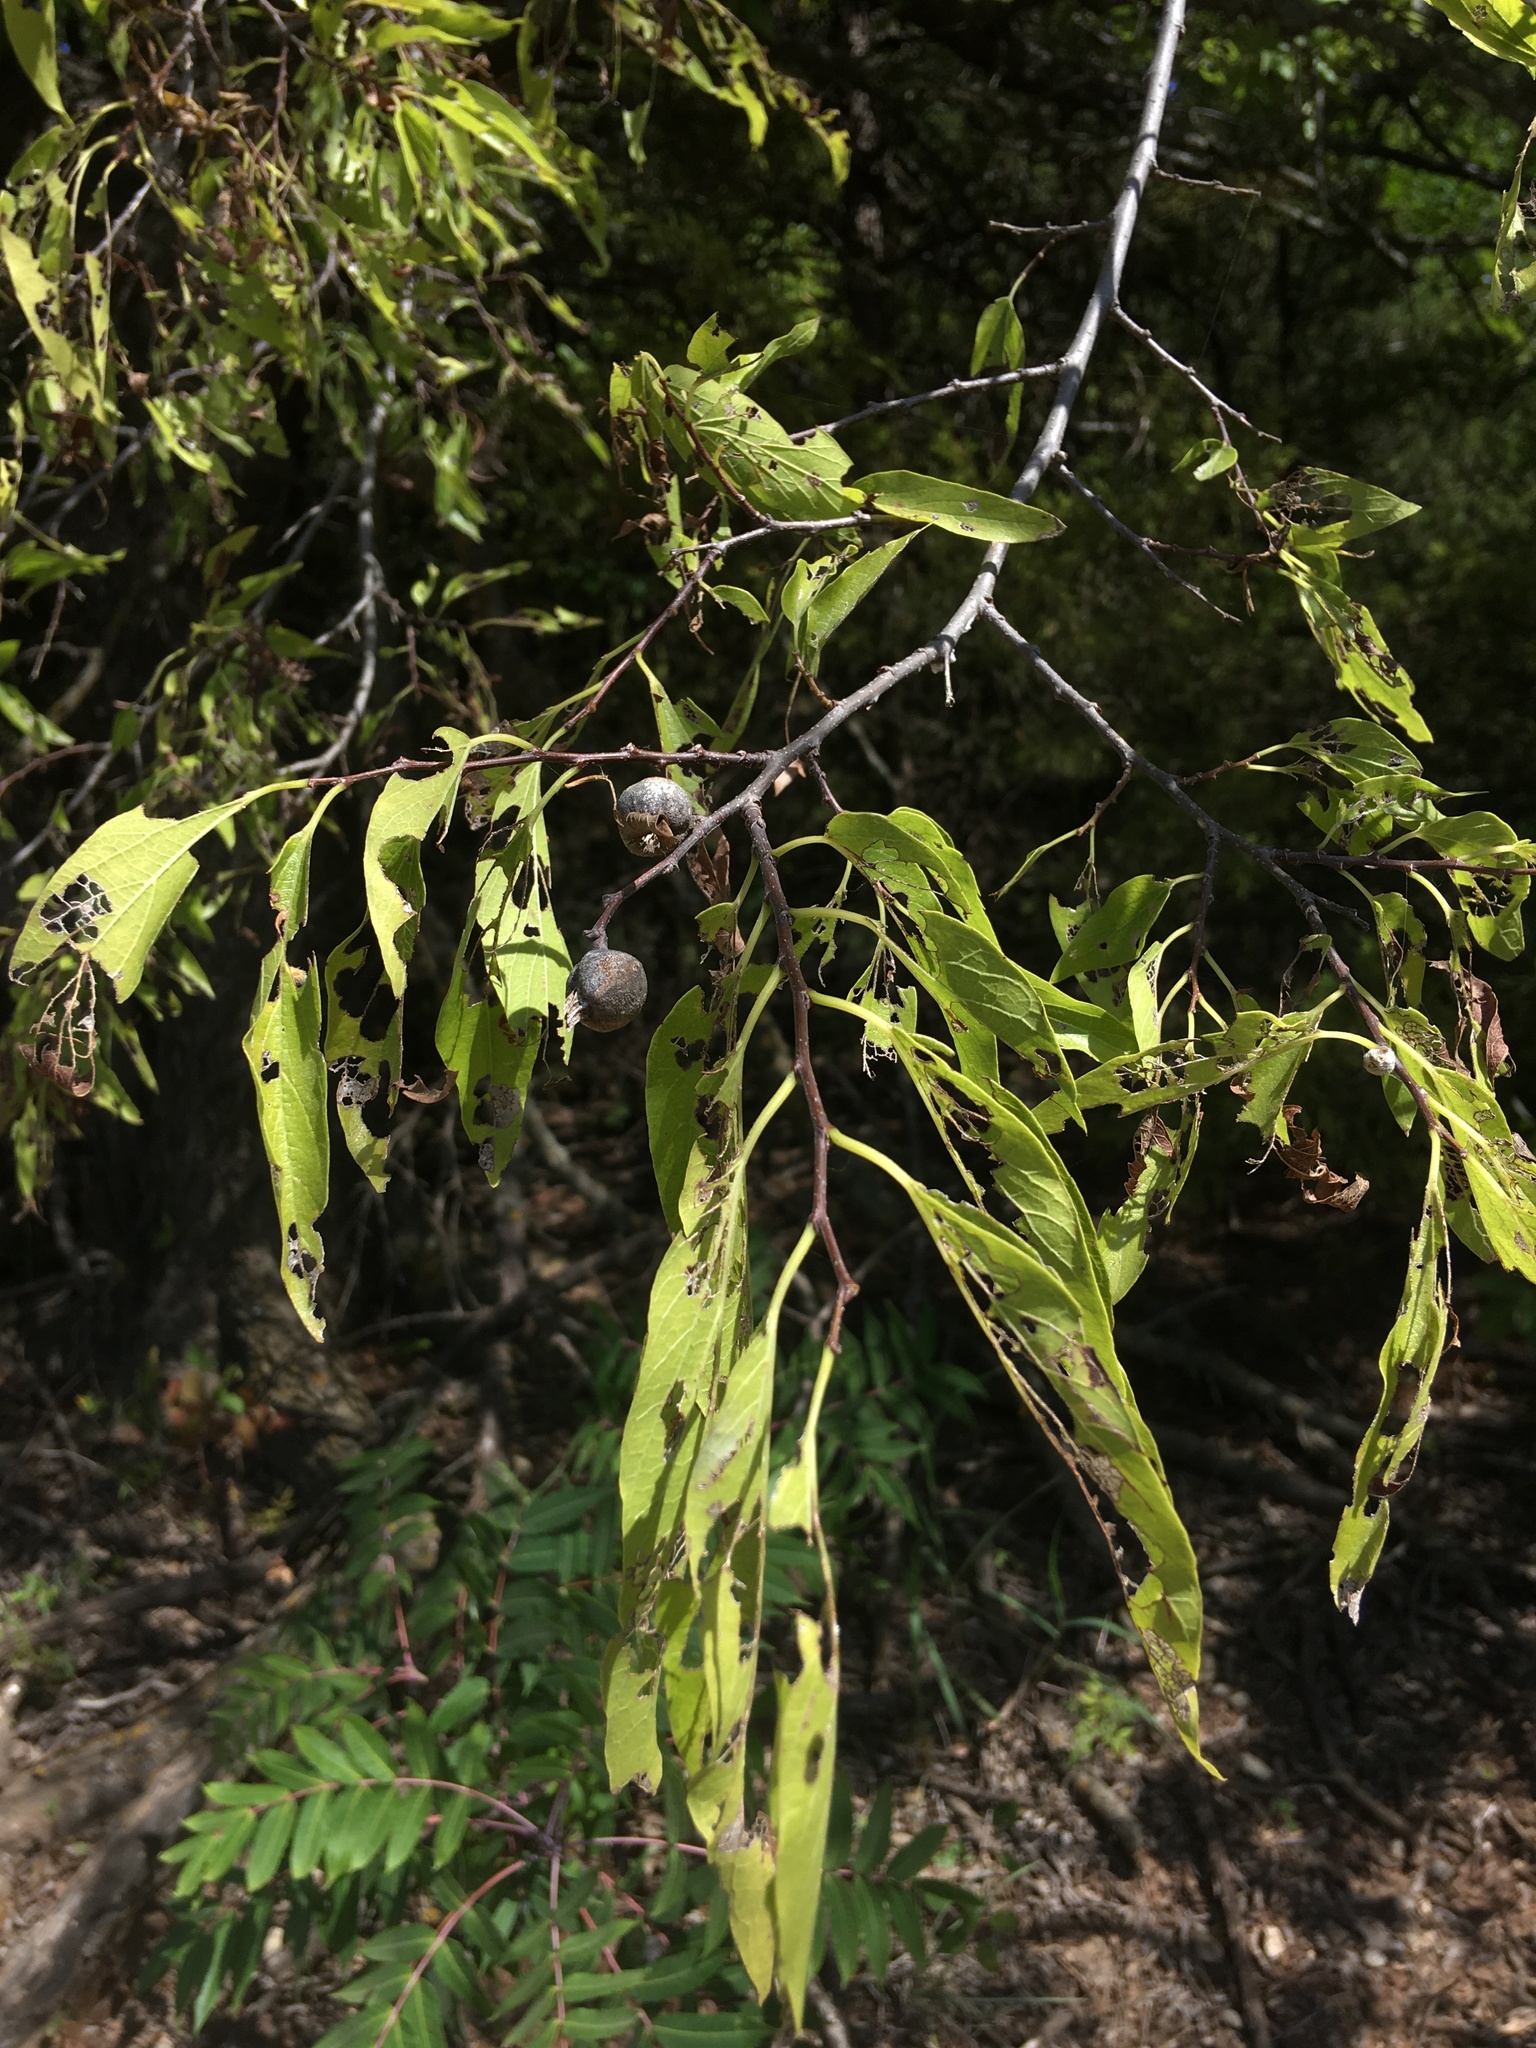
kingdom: Plantae
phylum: Tracheophyta
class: Magnoliopsida
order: Rosales
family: Cannabaceae
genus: Celtis
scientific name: Celtis laevigata
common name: Sugarberry
